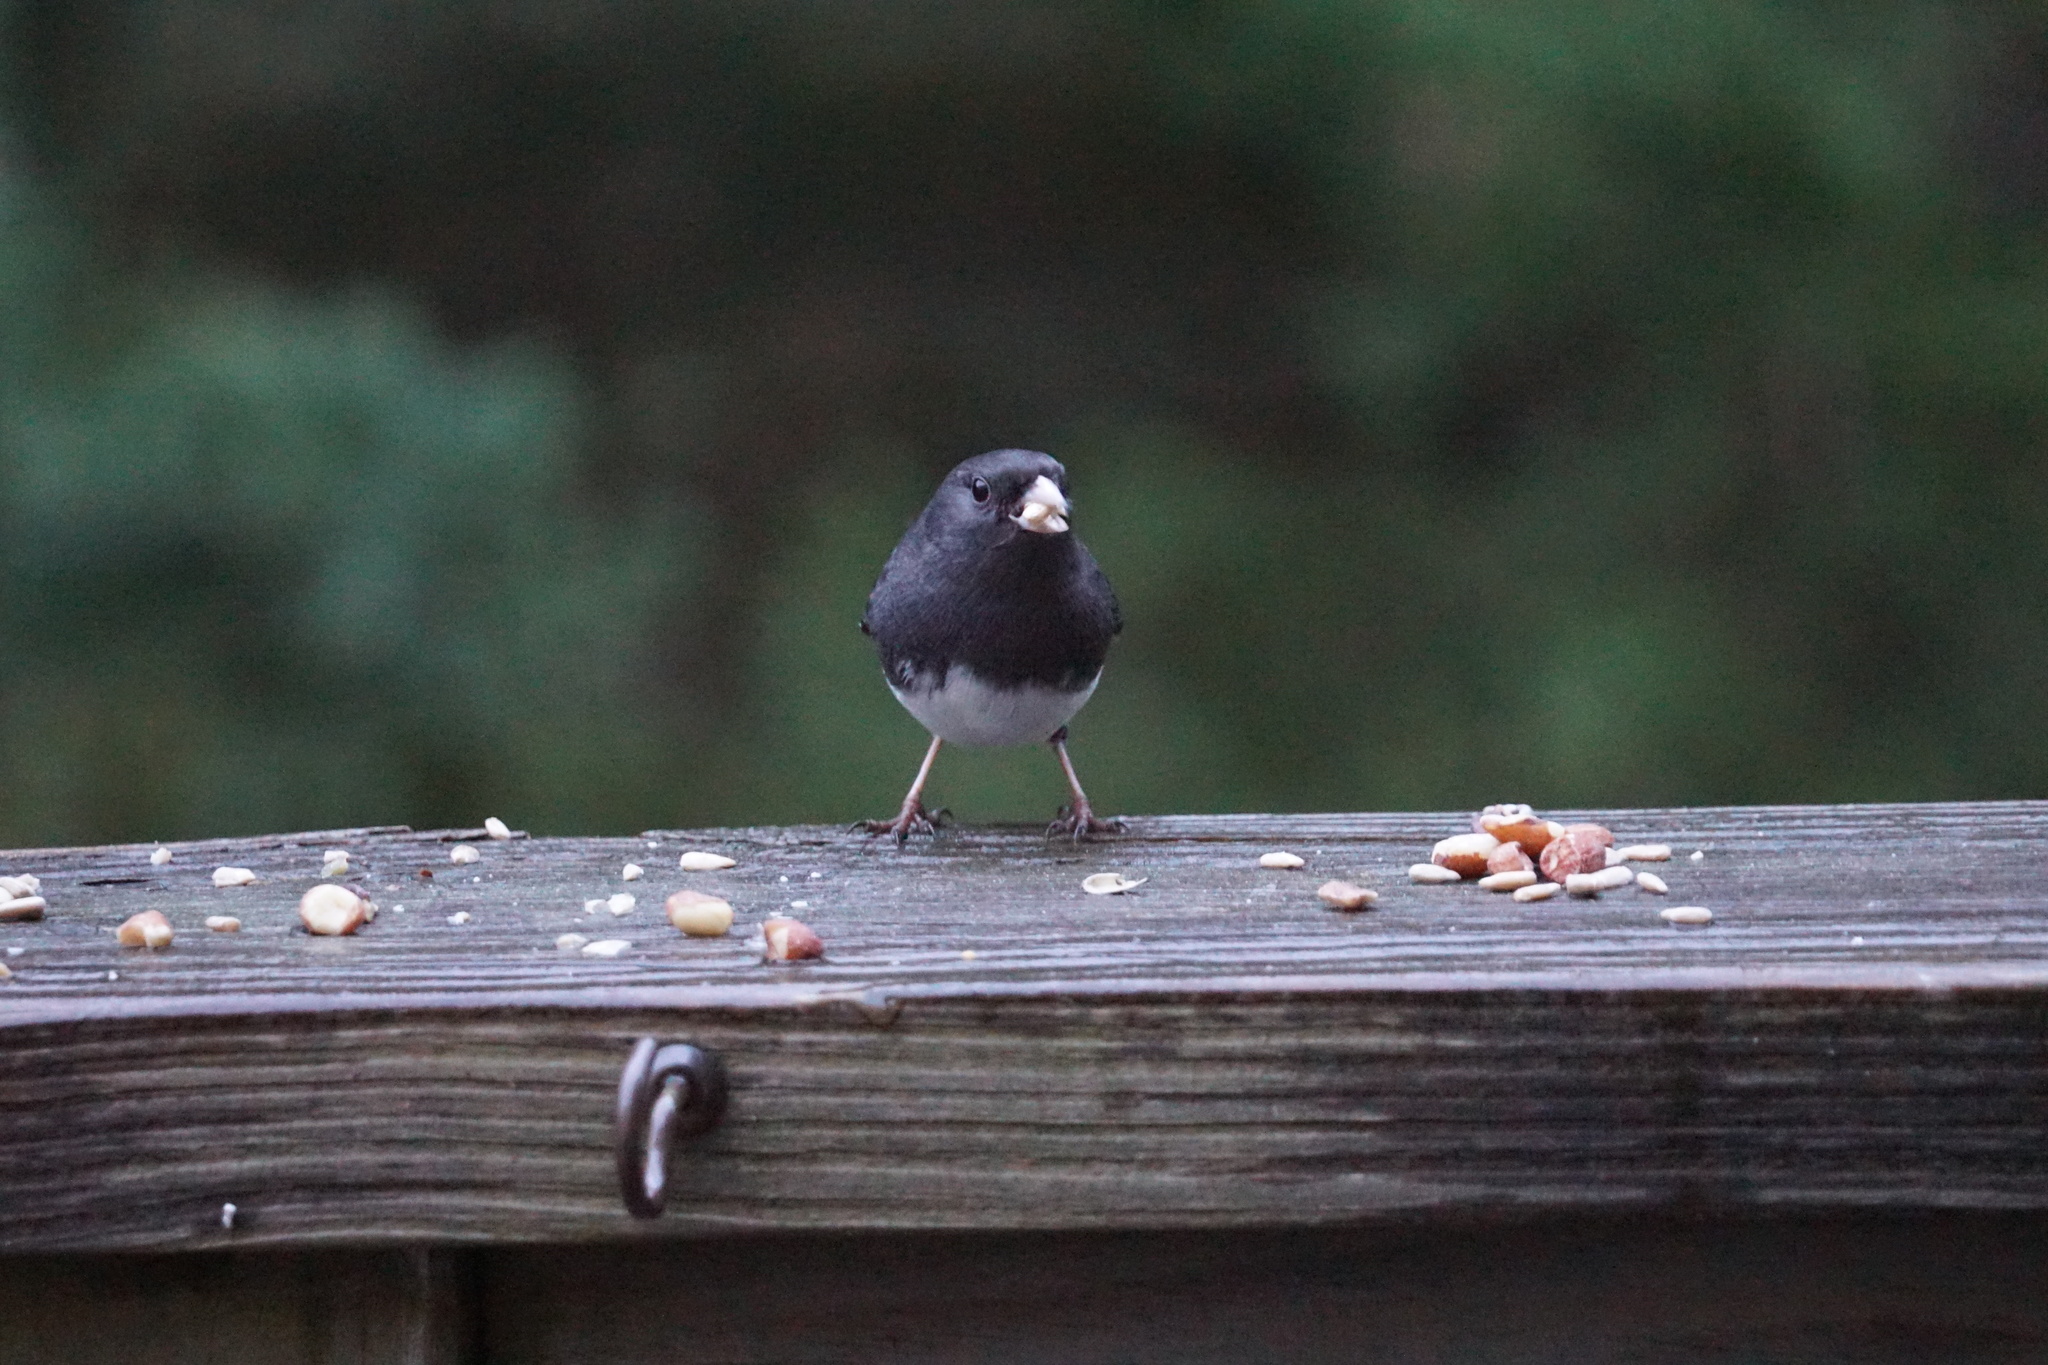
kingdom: Animalia
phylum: Chordata
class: Aves
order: Passeriformes
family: Passerellidae
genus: Junco
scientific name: Junco hyemalis
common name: Dark-eyed junco
